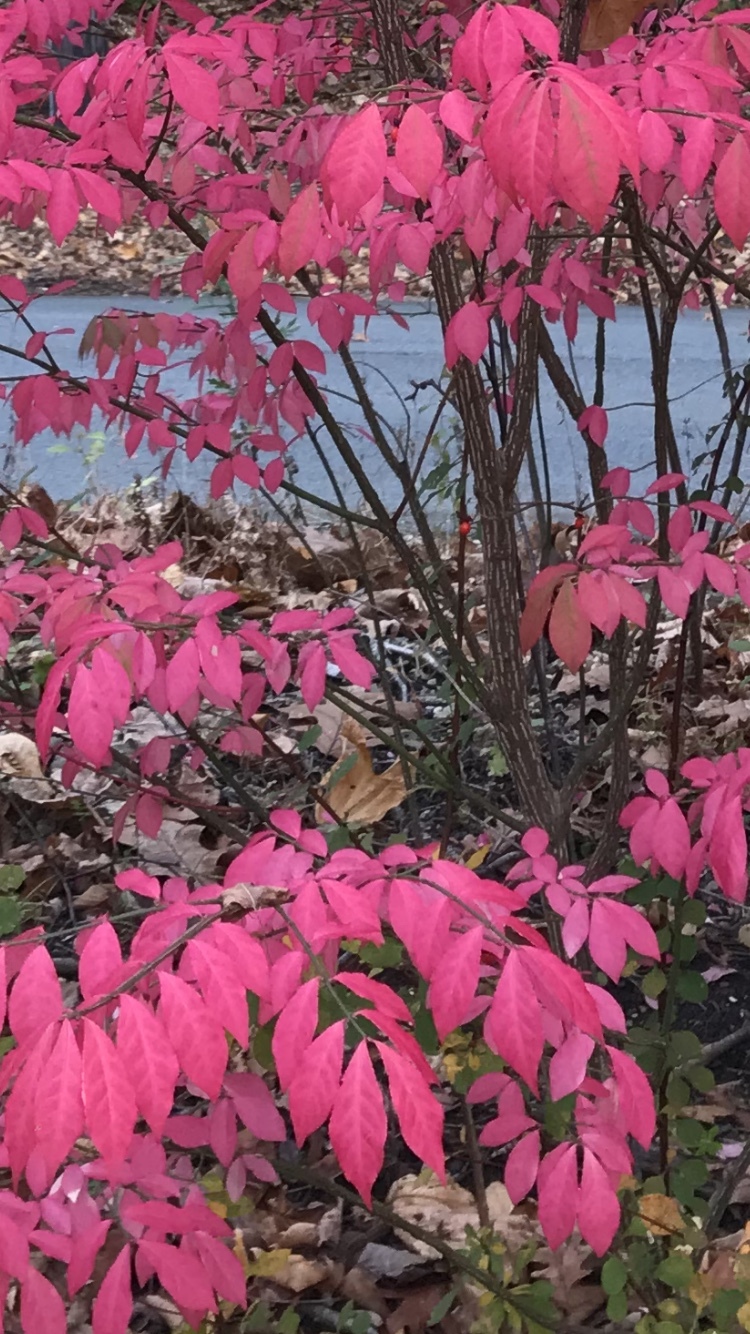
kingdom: Plantae
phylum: Tracheophyta
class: Magnoliopsida
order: Celastrales
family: Celastraceae
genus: Euonymus
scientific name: Euonymus alatus
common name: Winged euonymus
